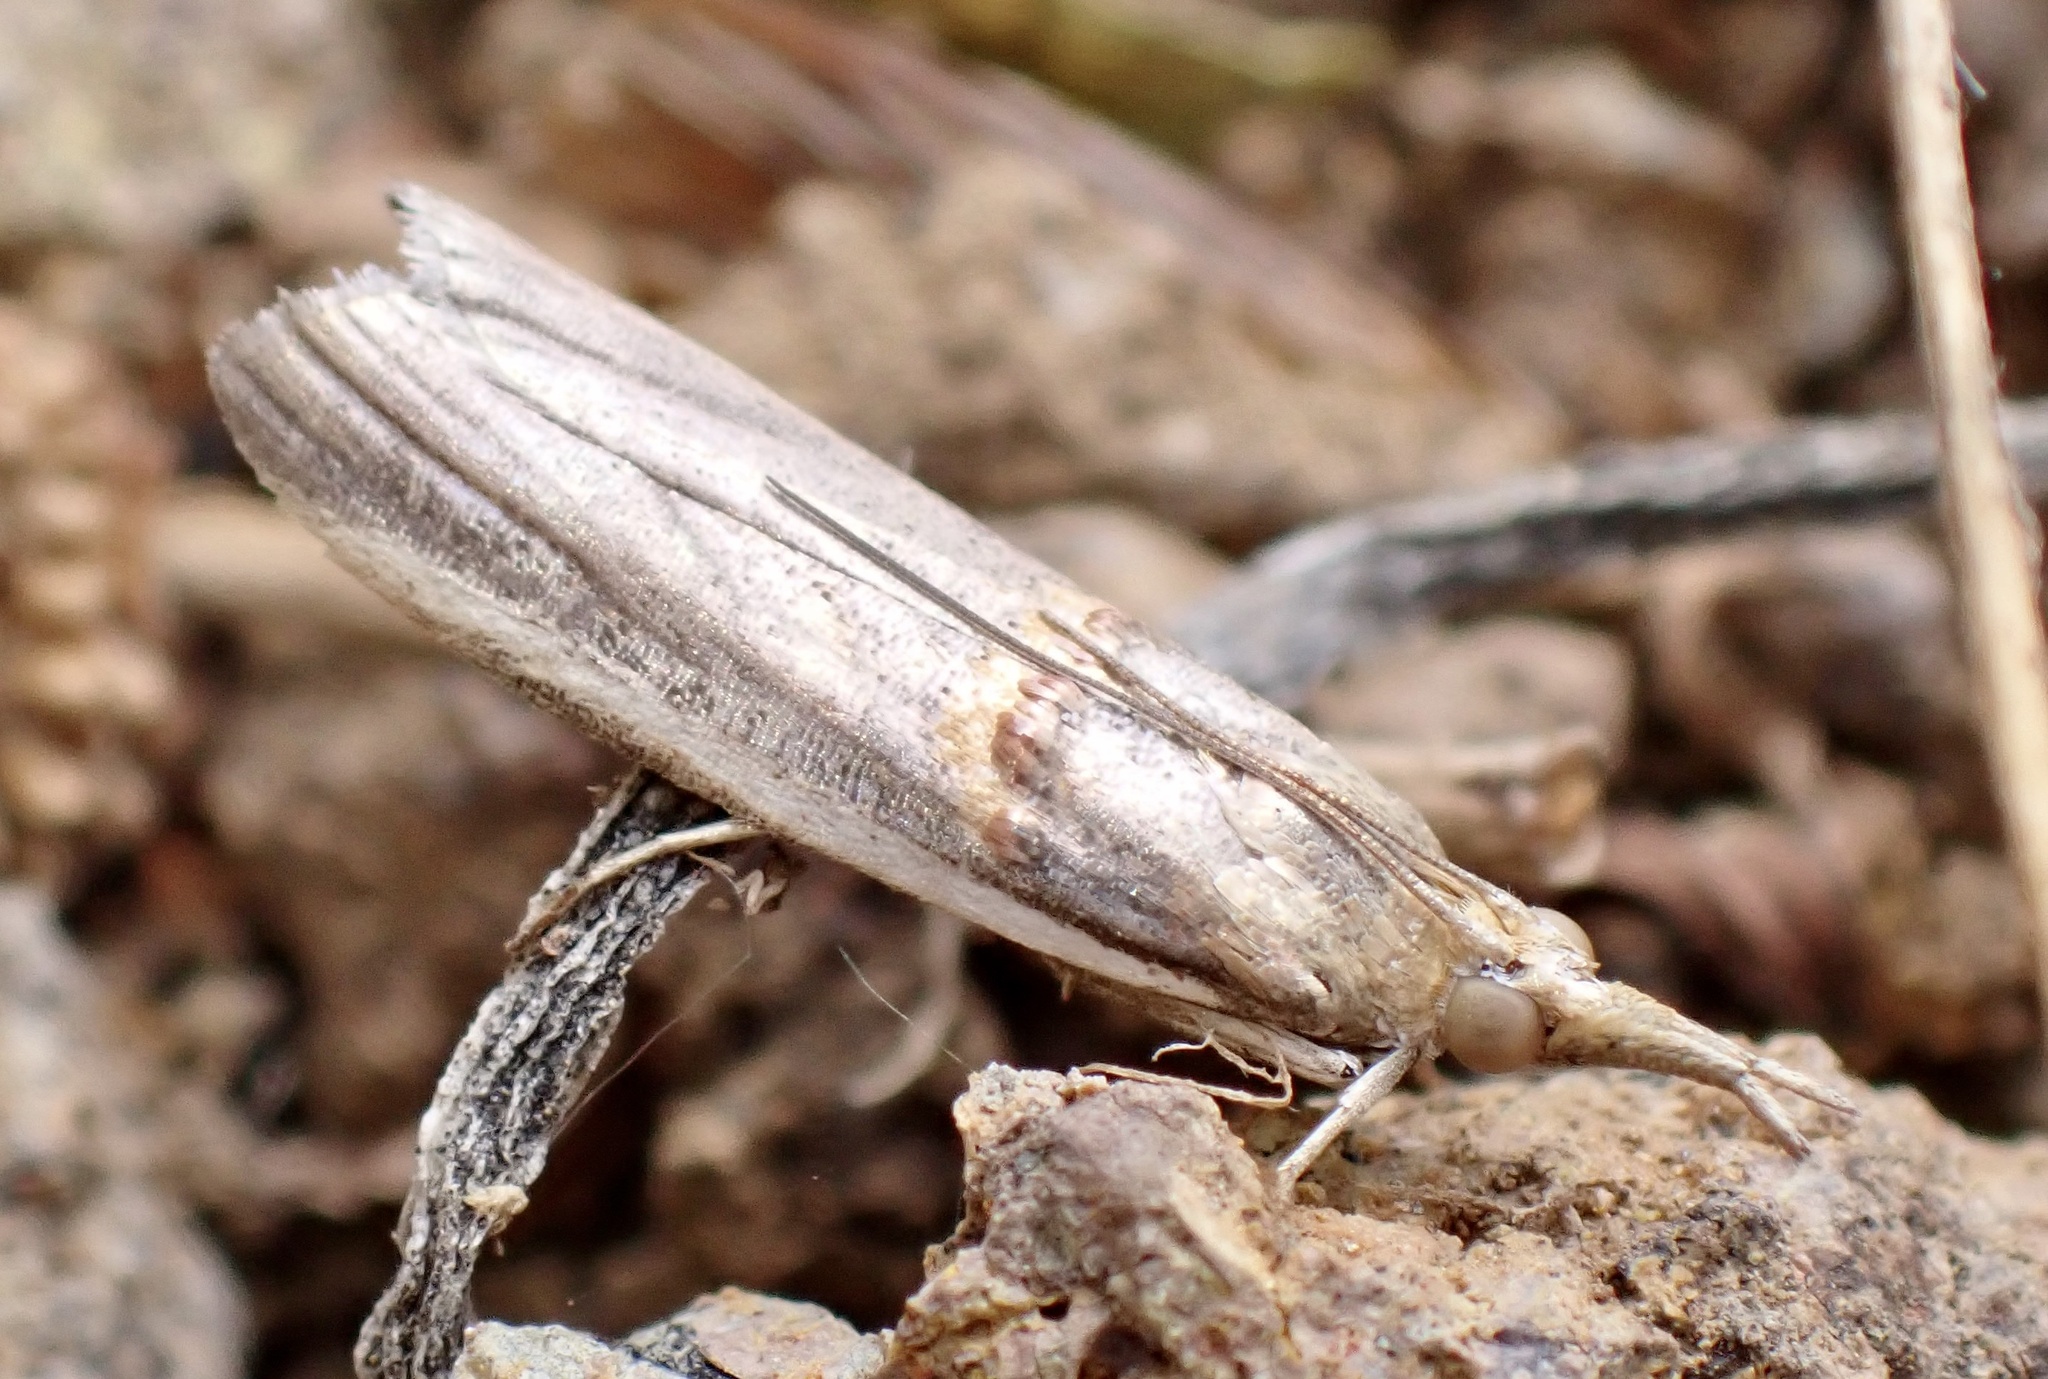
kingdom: Animalia
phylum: Arthropoda
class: Insecta
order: Lepidoptera
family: Pyralidae
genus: Etiella
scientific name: Etiella zinckenella
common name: Gold-banded etiella moth
